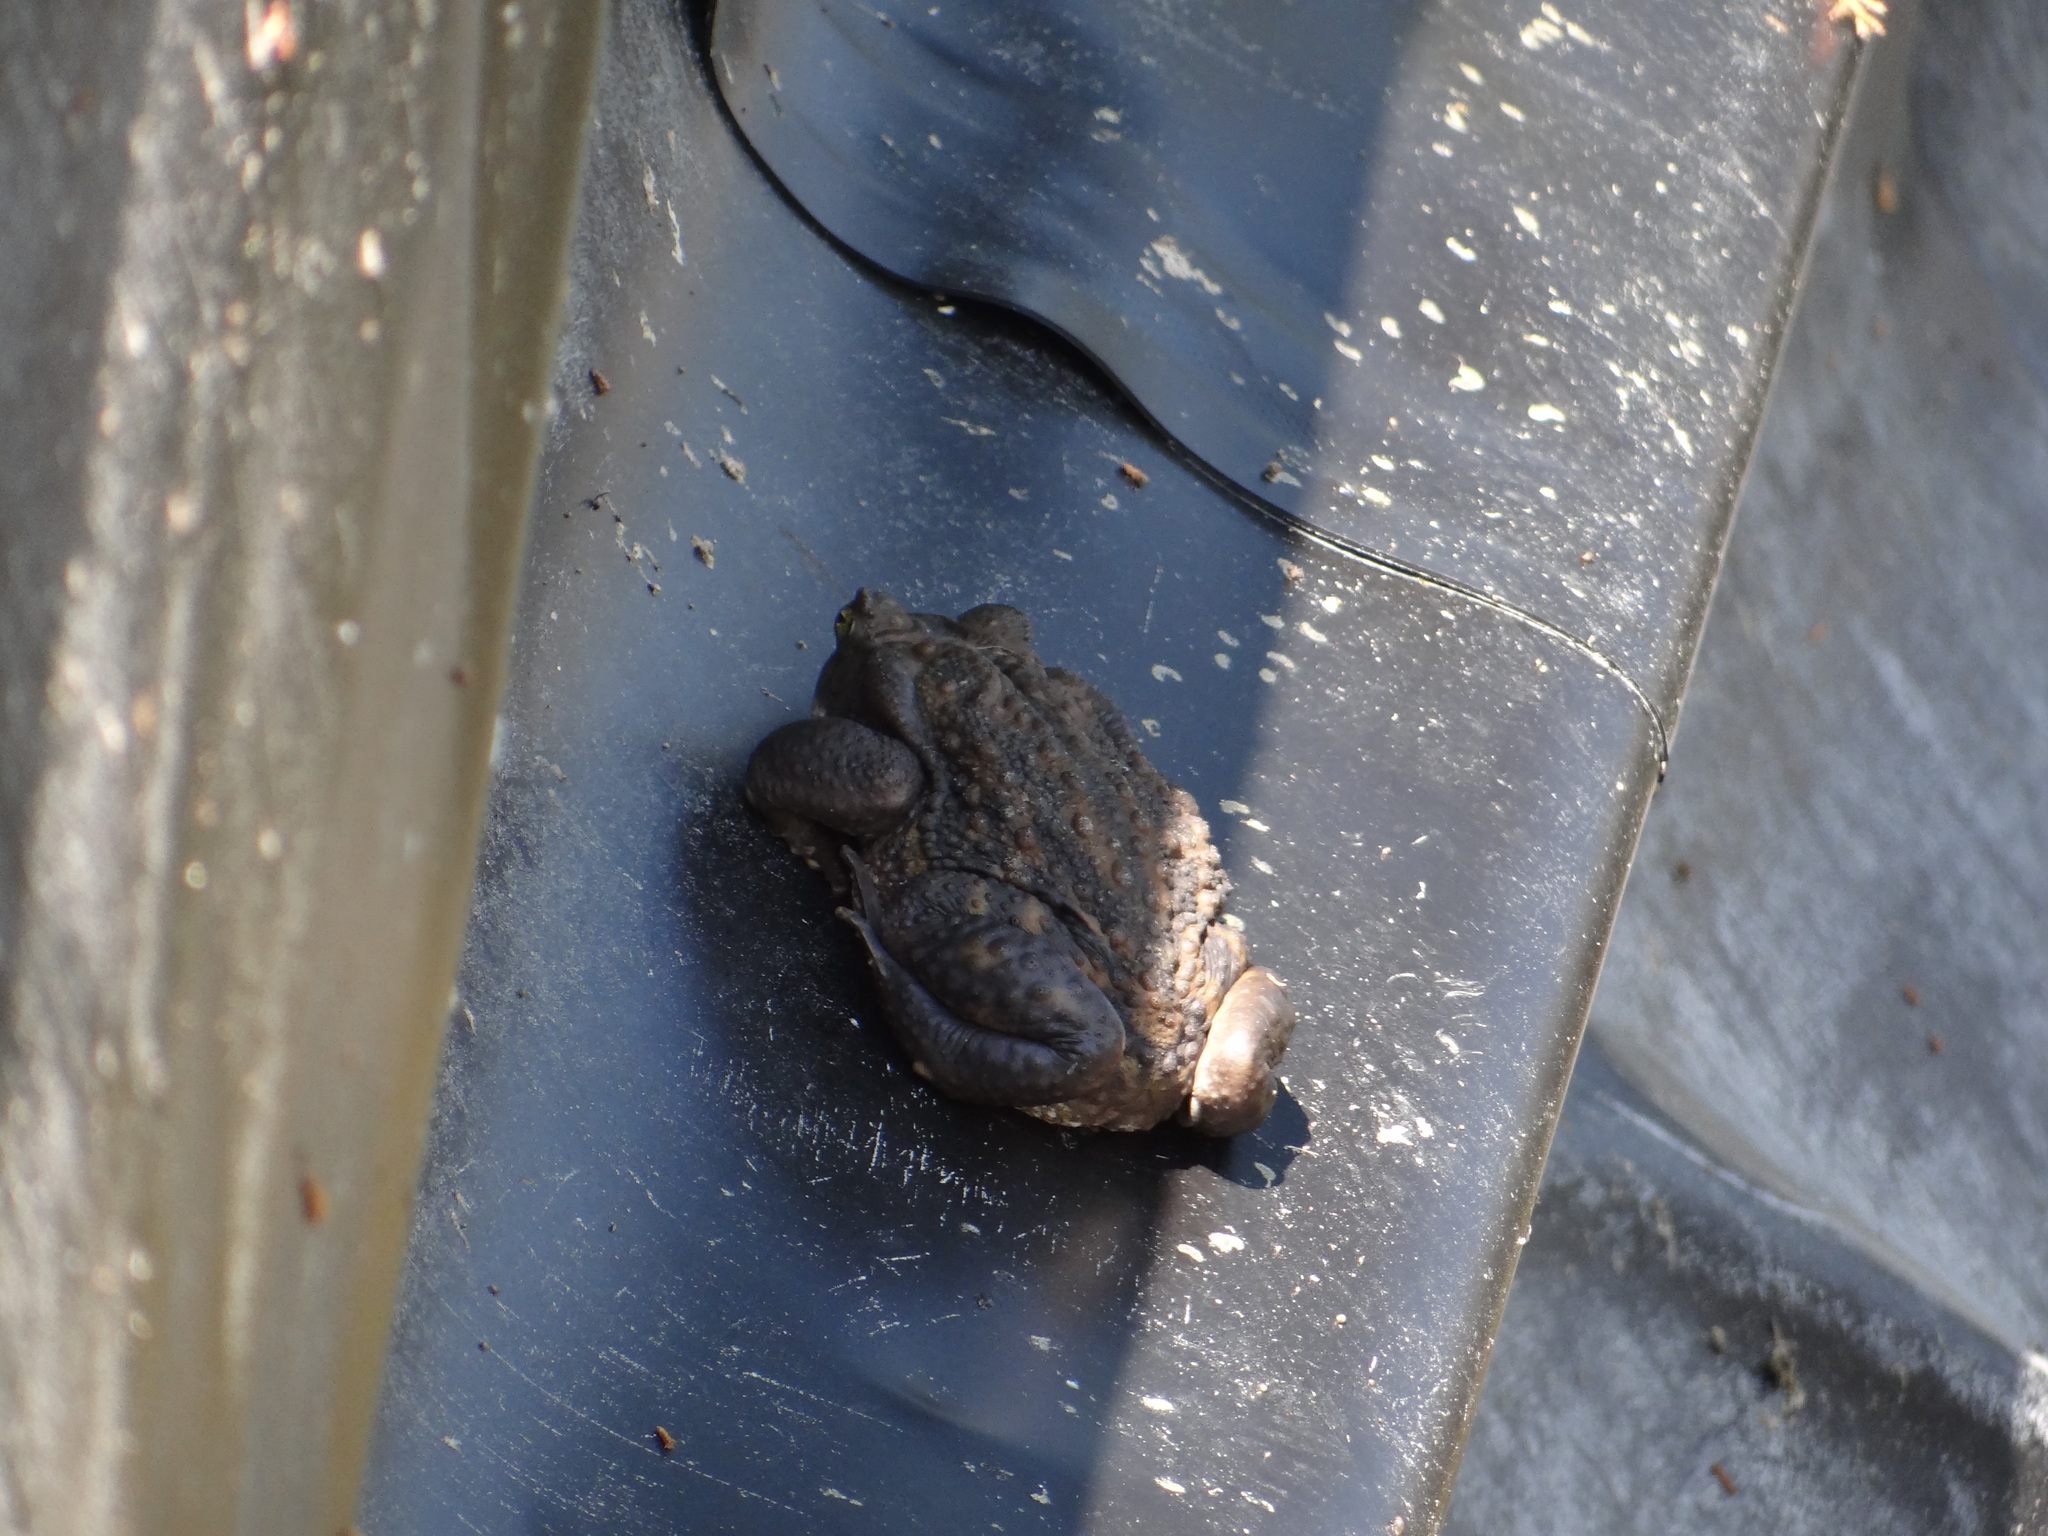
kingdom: Animalia
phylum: Chordata
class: Amphibia
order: Anura
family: Bufonidae
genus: Rhinella
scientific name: Rhinella arenarum
